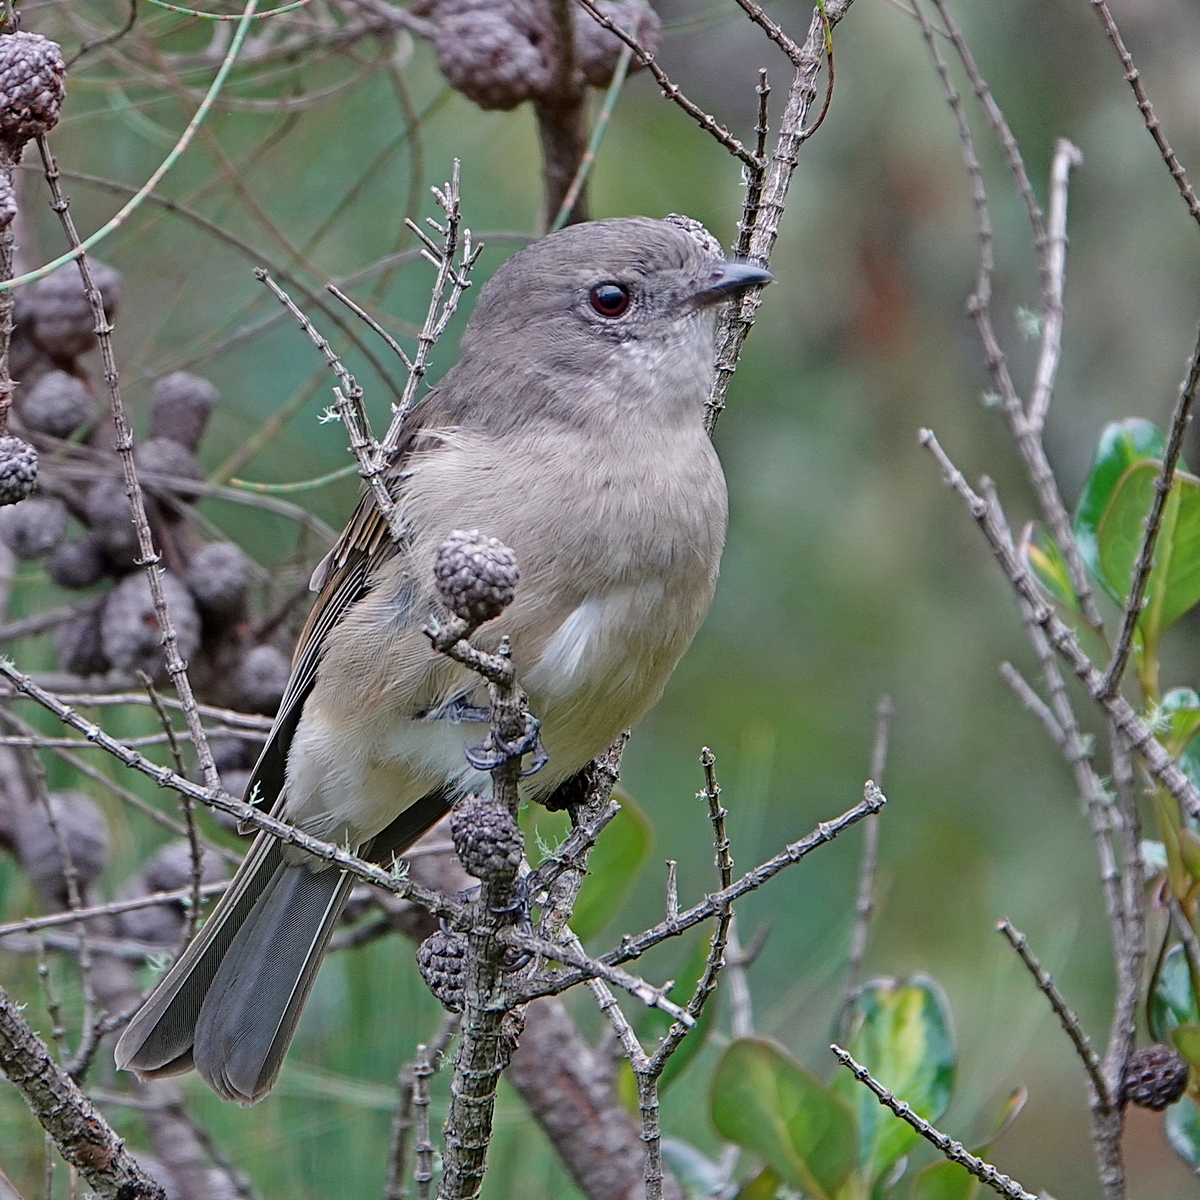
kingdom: Animalia
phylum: Chordata
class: Aves
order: Passeriformes
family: Pachycephalidae
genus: Pachycephala
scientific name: Pachycephala pectoralis
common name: Australian golden whistler
